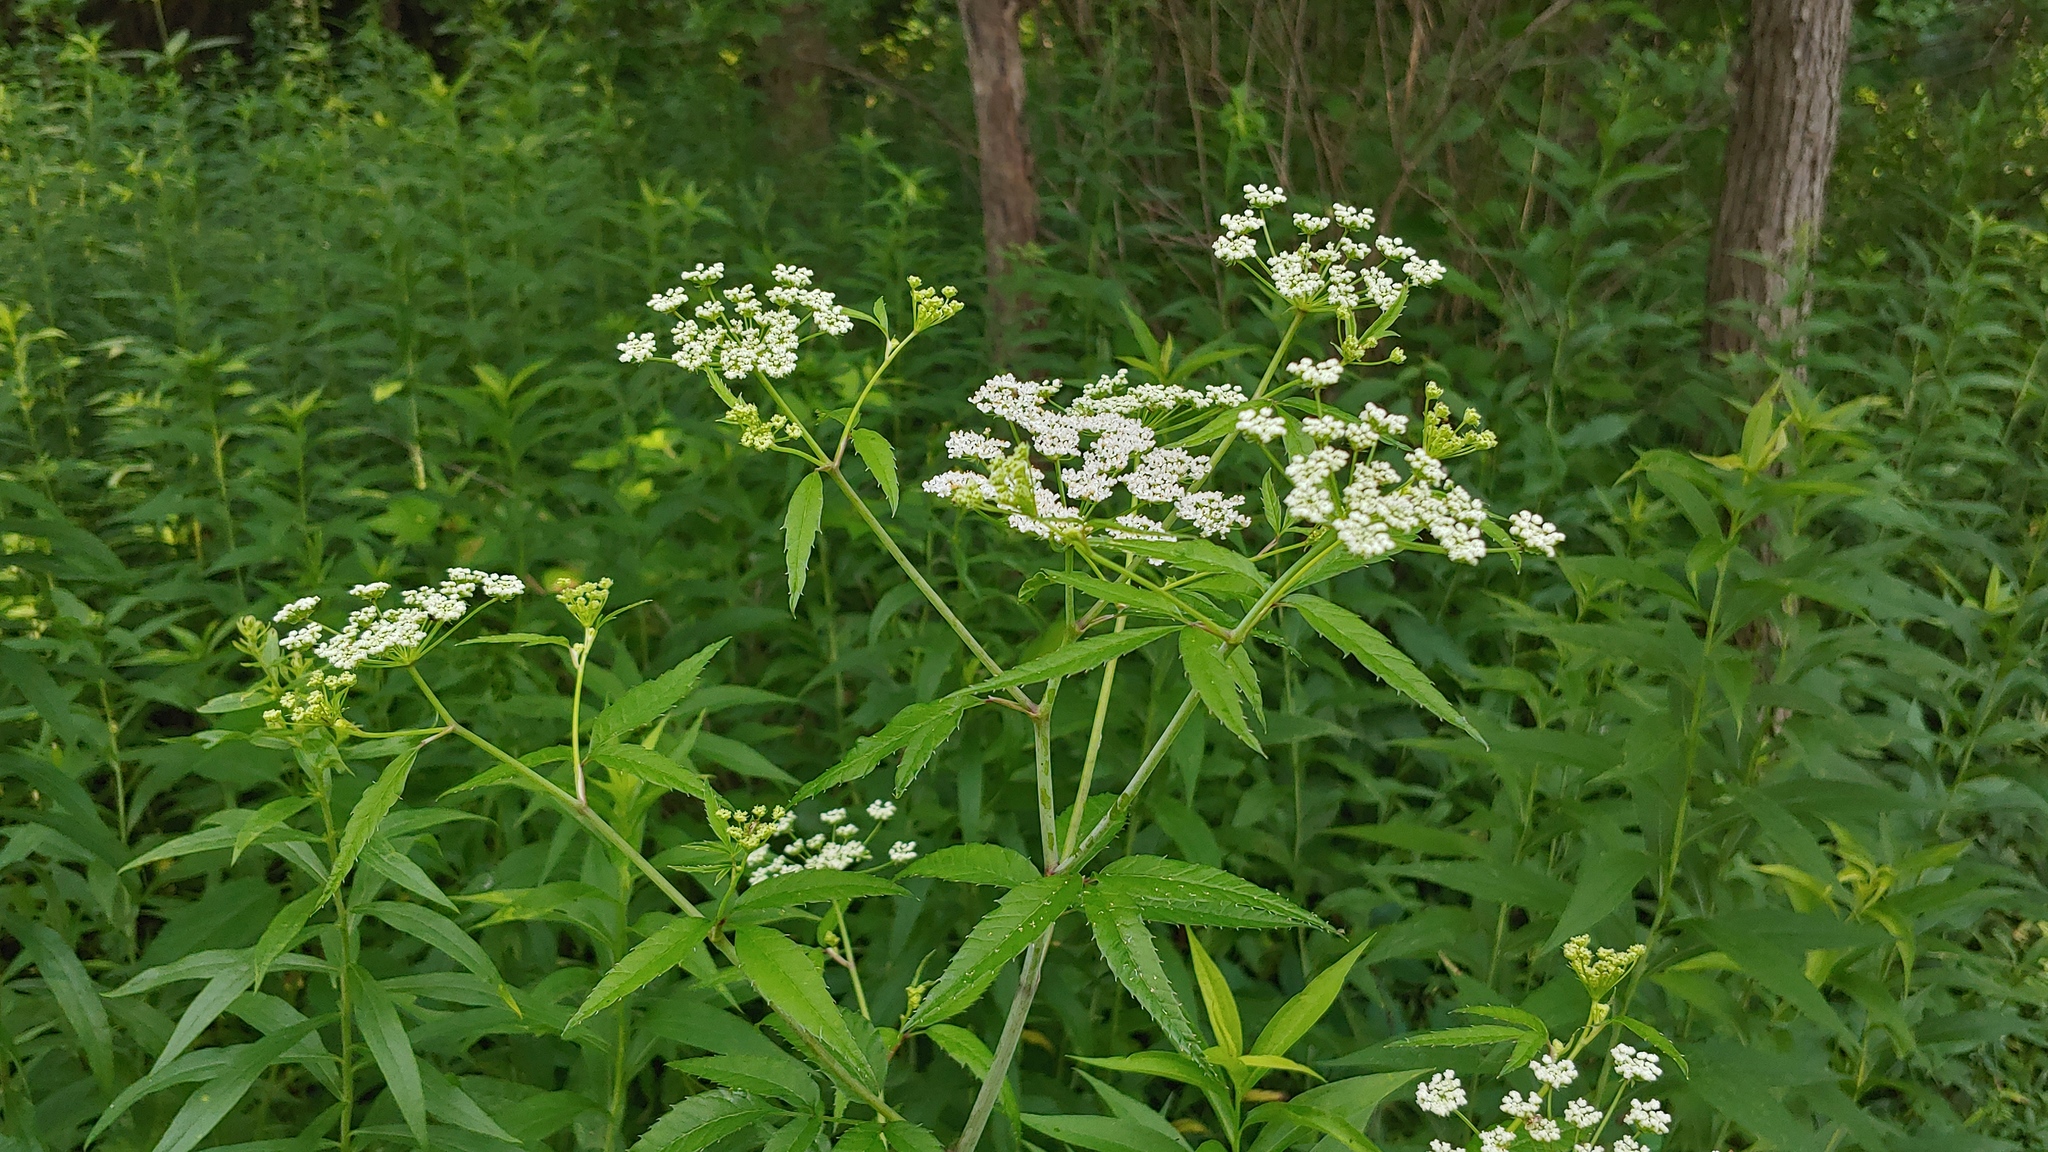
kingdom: Plantae
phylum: Tracheophyta
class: Magnoliopsida
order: Apiales
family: Apiaceae
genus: Cicuta
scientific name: Cicuta maculata
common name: Spotted cowbane
